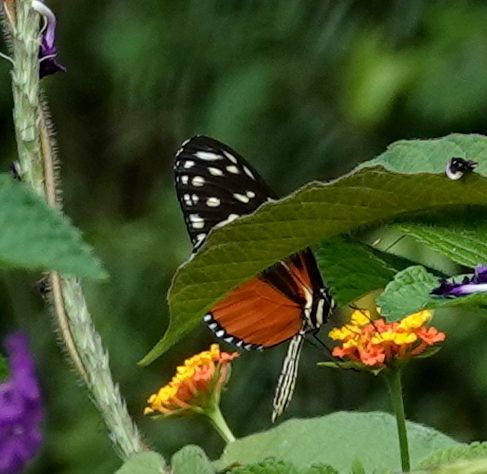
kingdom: Animalia
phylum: Arthropoda
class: Insecta
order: Lepidoptera
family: Nymphalidae
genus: Heliconius
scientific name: Heliconius hecale
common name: Tiger longwing
